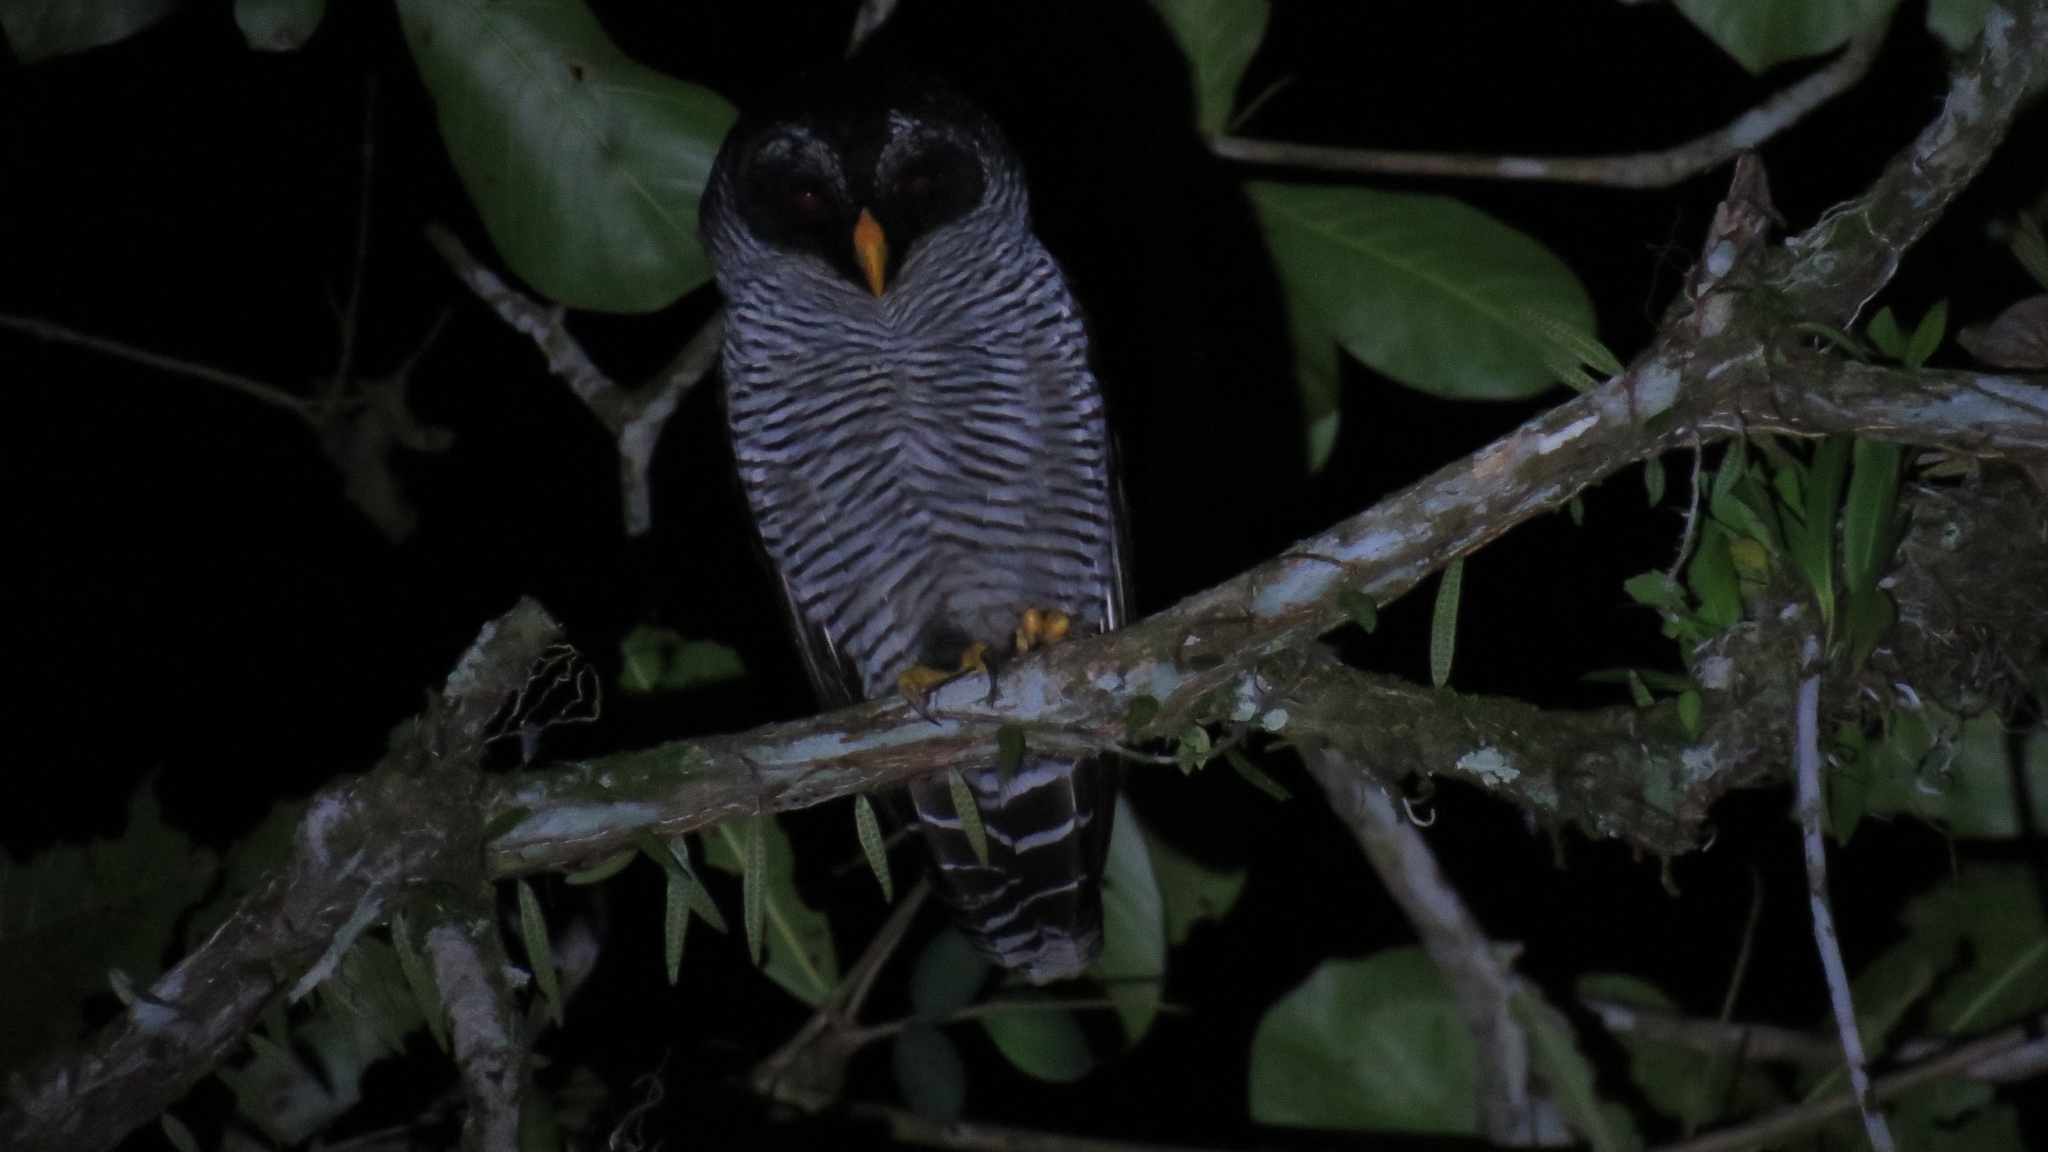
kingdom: Animalia
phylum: Chordata
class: Aves
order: Strigiformes
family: Strigidae
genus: Strix
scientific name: Strix nigrolineata
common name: Black-and-white owl
